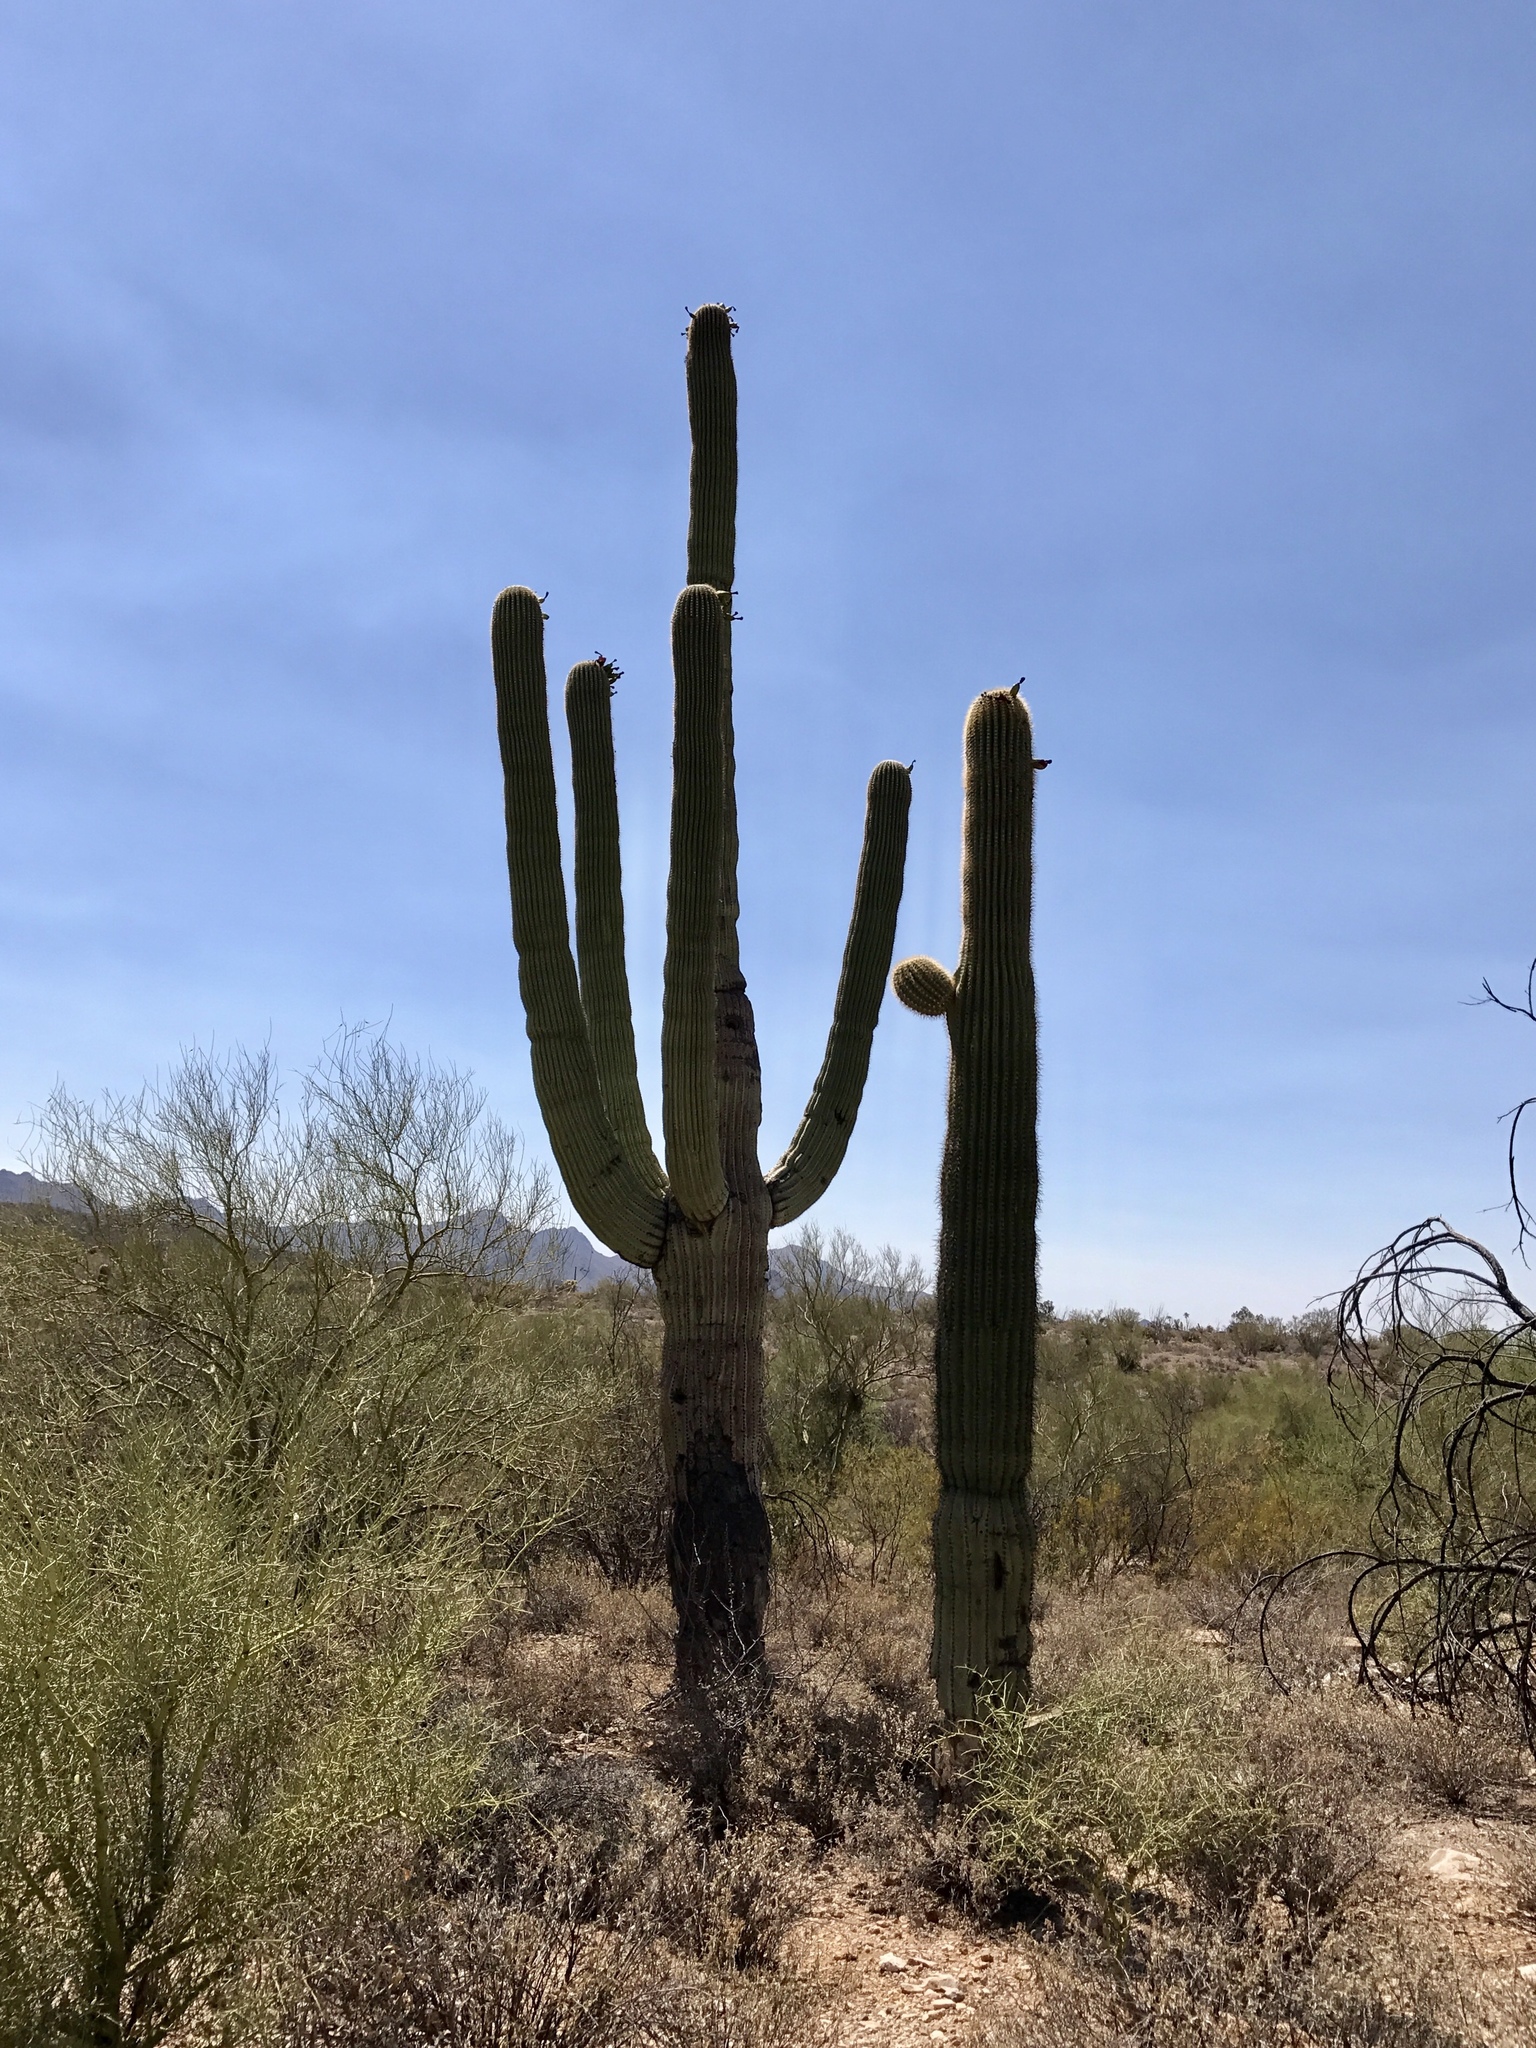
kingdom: Plantae
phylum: Tracheophyta
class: Magnoliopsida
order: Caryophyllales
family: Cactaceae
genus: Carnegiea
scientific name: Carnegiea gigantea
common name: Saguaro
